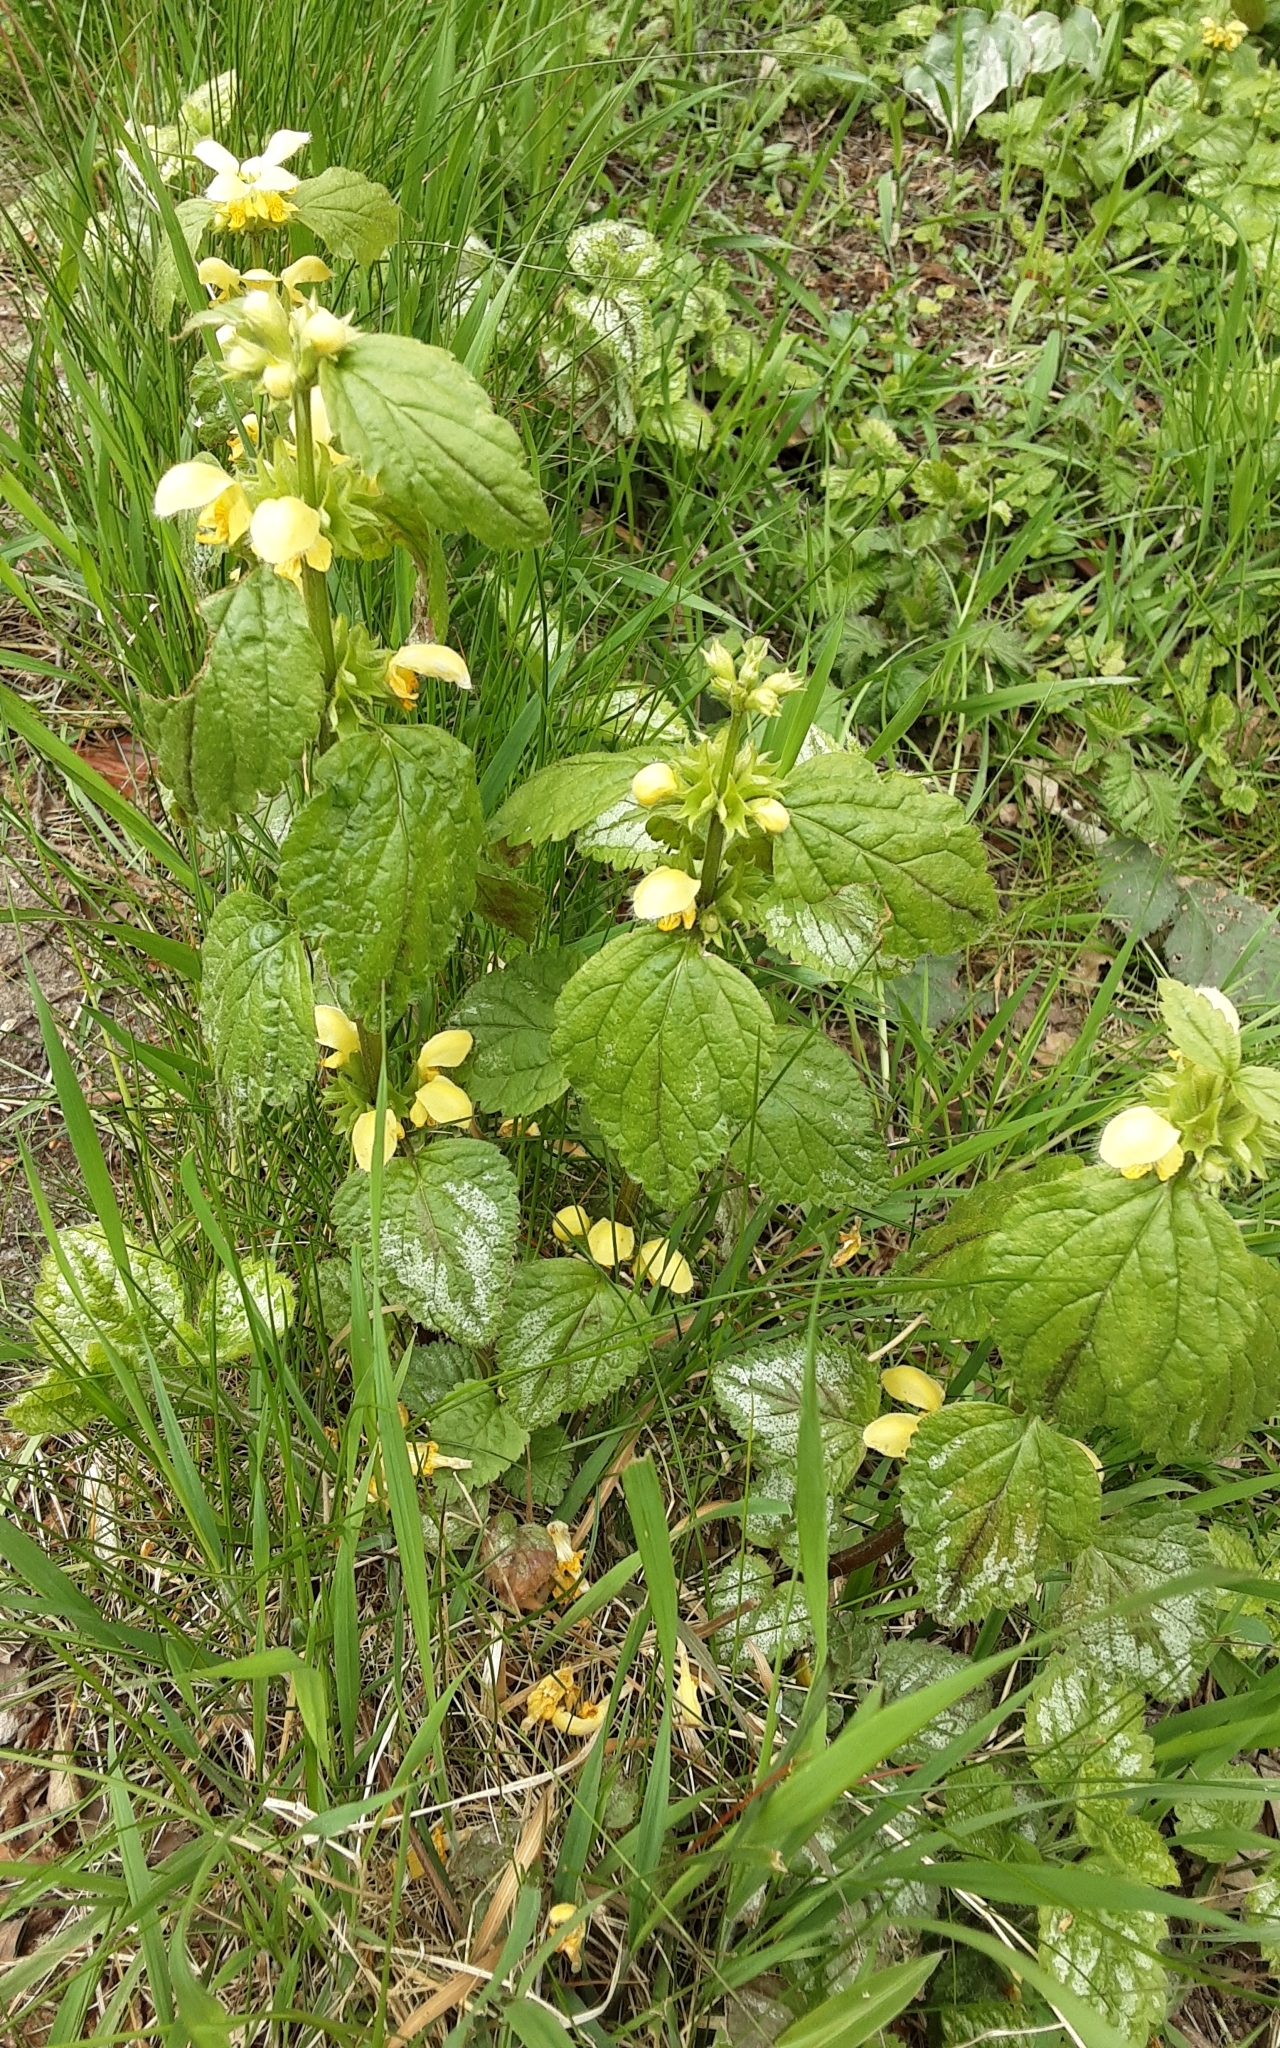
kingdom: Plantae
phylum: Tracheophyta
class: Magnoliopsida
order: Lamiales
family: Lamiaceae
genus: Lamium
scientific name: Lamium galeobdolon
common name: Yellow archangel
